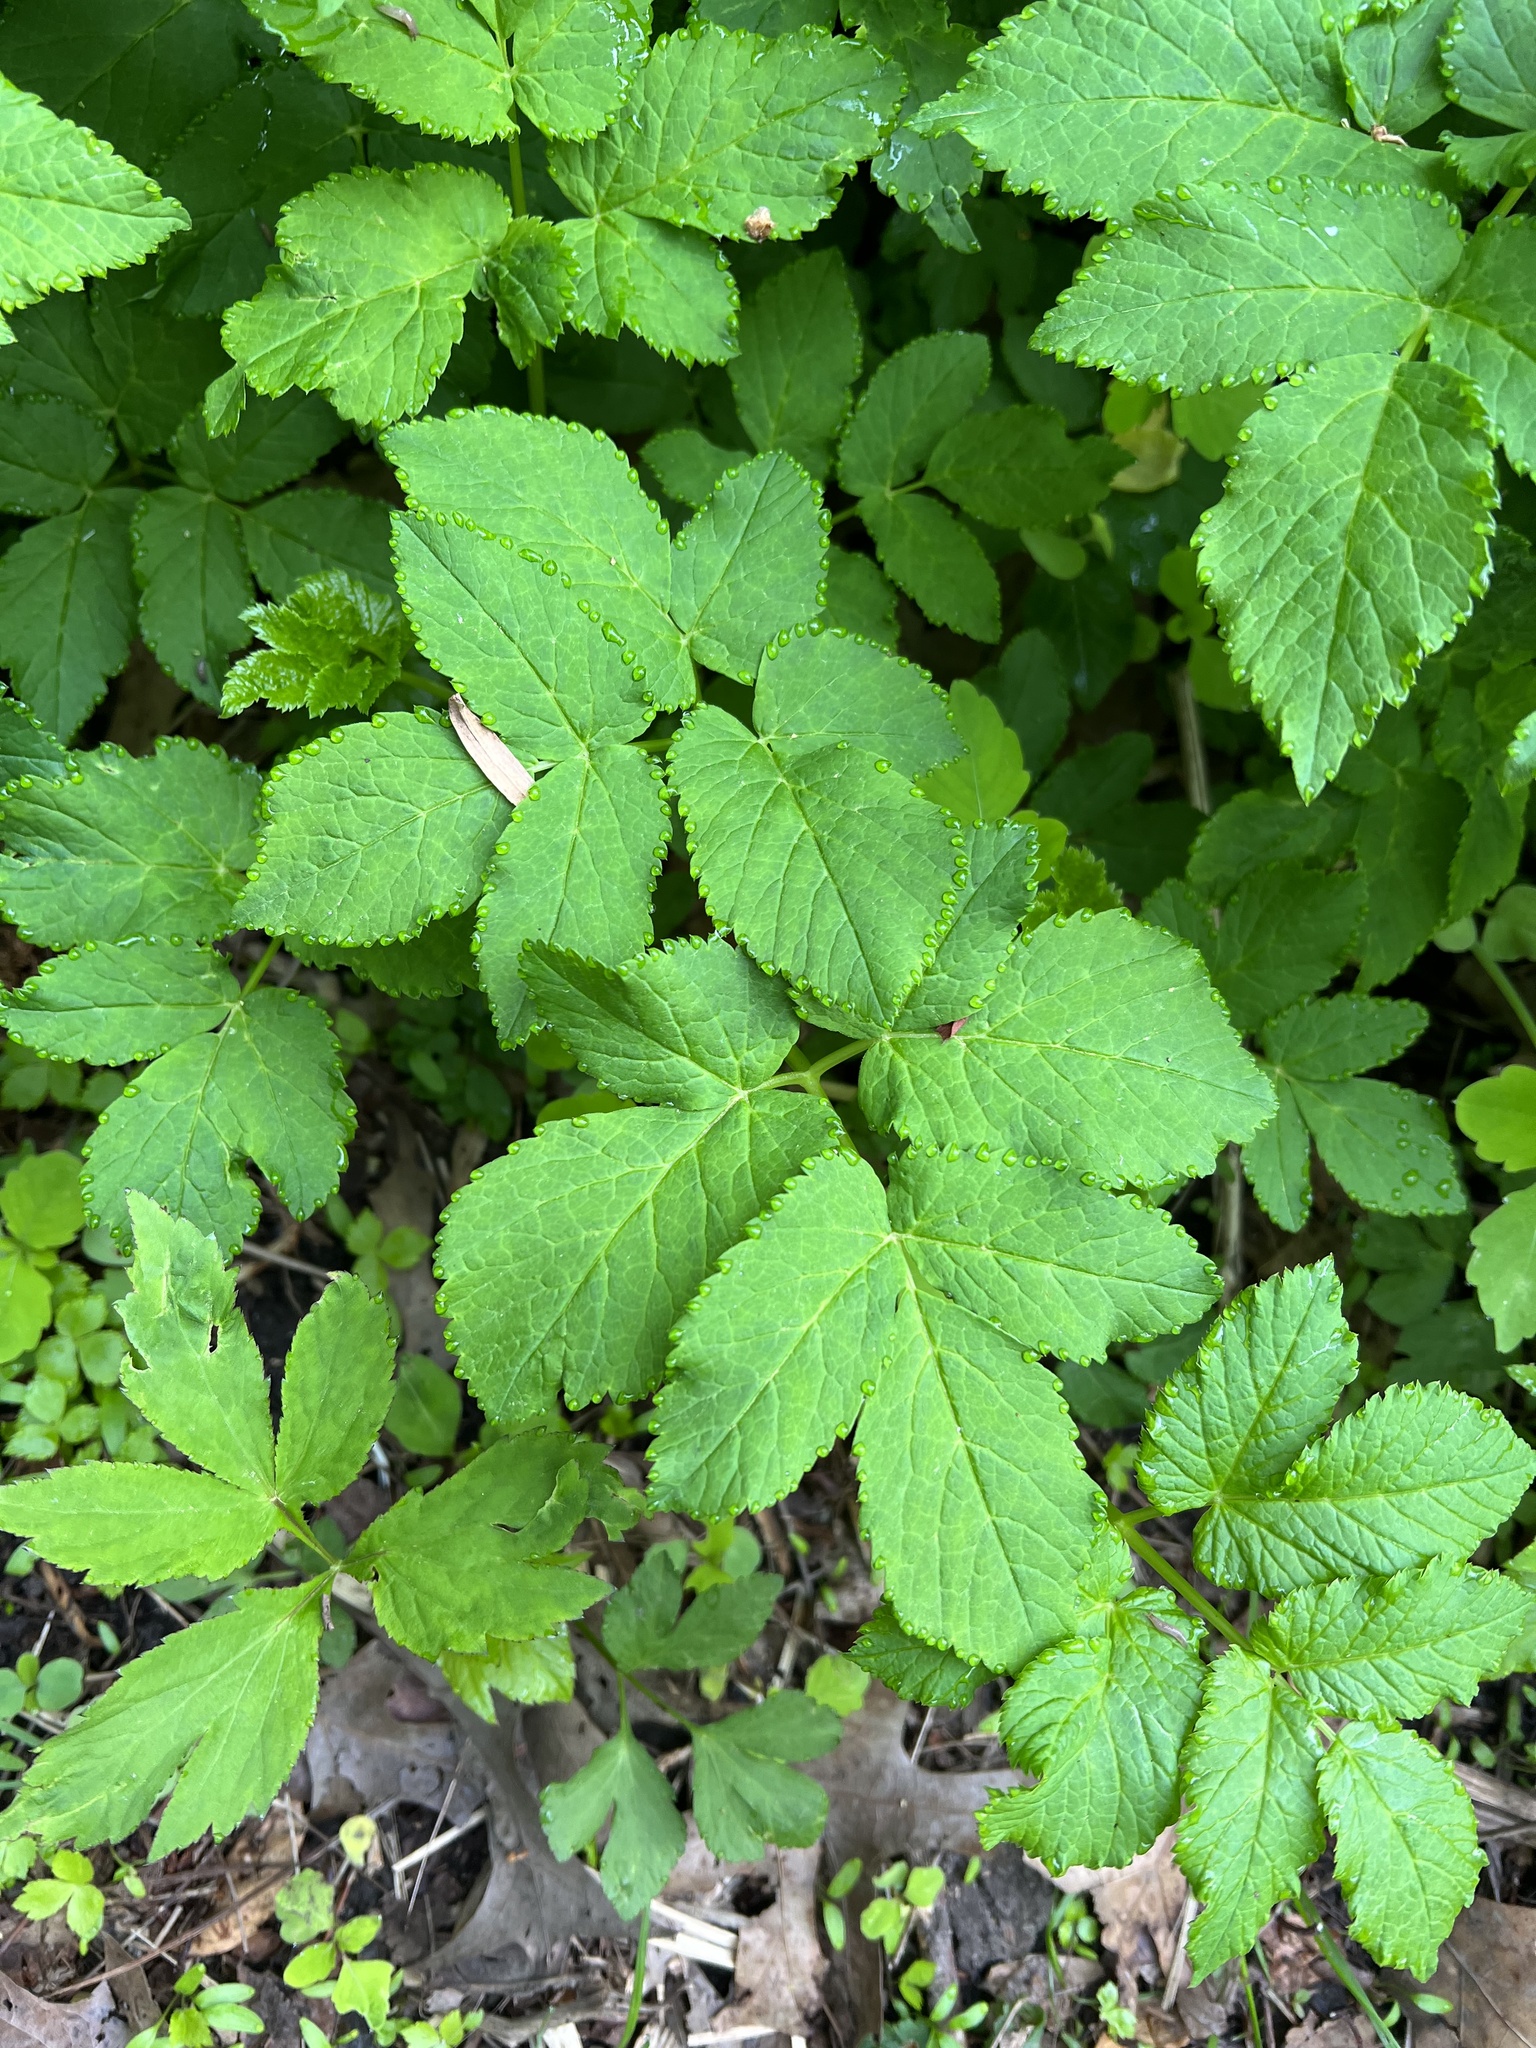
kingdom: Plantae
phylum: Tracheophyta
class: Magnoliopsida
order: Apiales
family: Apiaceae
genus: Aegopodium
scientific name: Aegopodium podagraria
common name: Ground-elder
